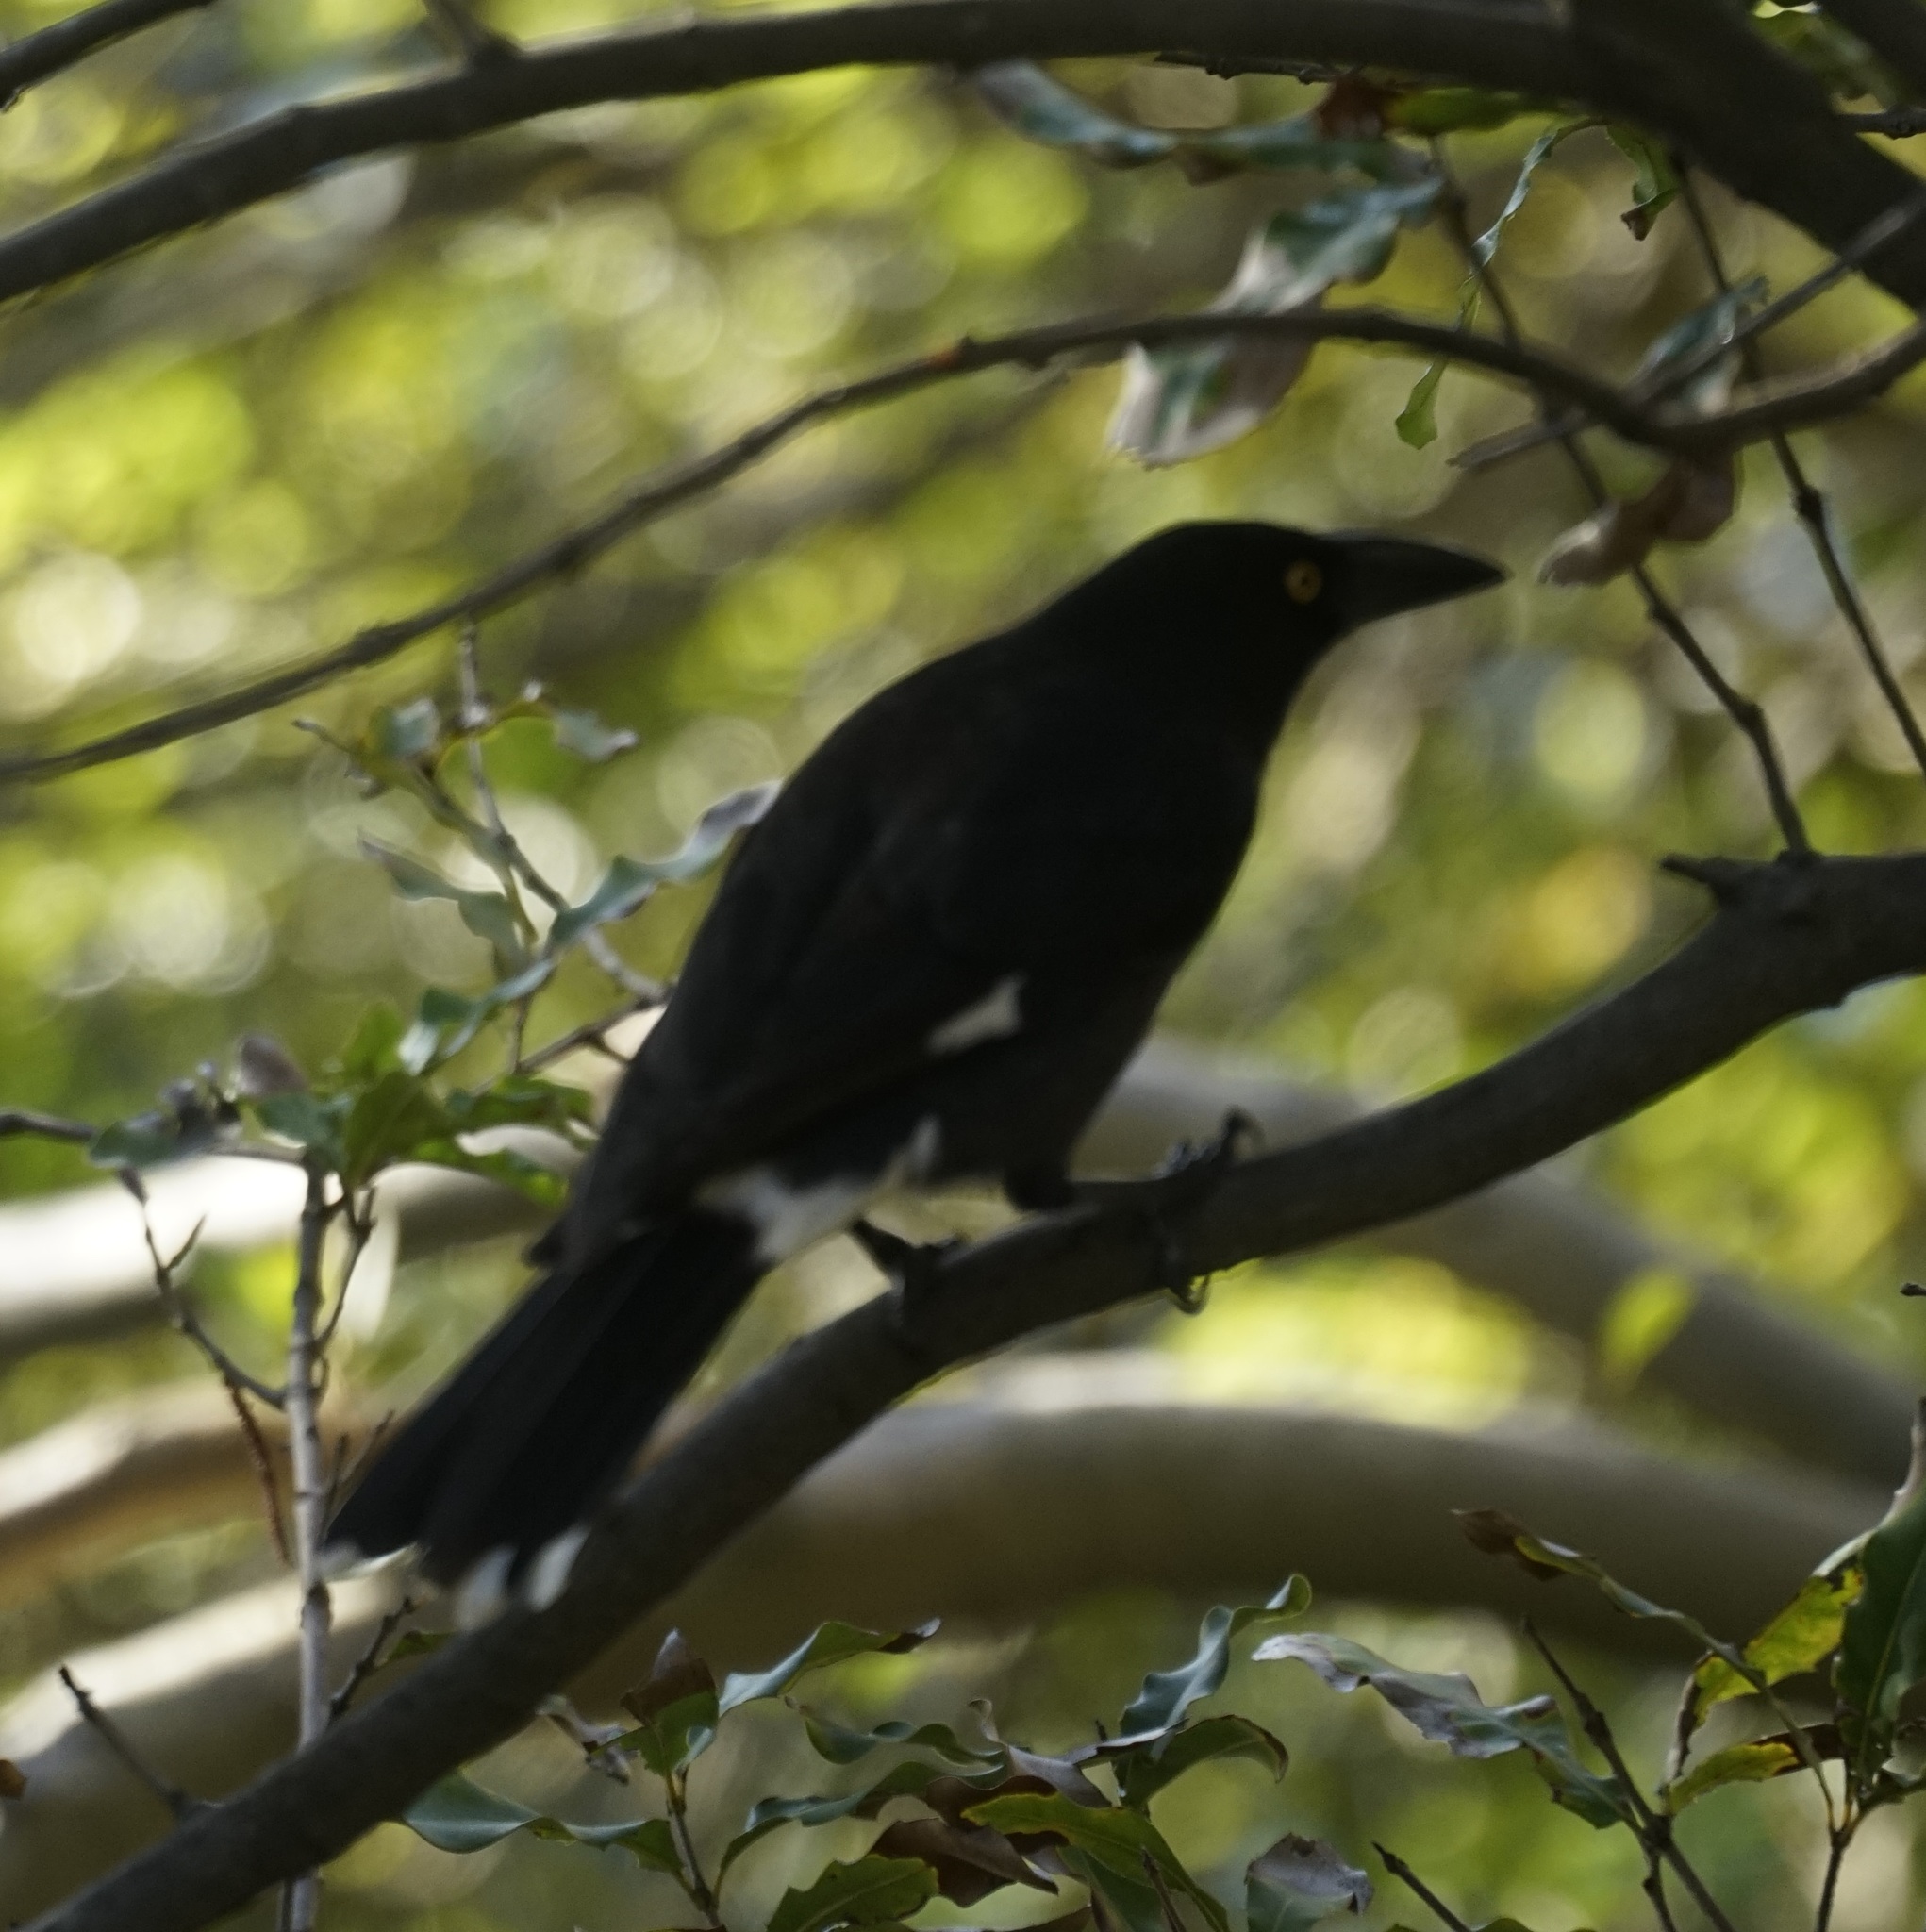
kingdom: Animalia
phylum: Chordata
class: Aves
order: Passeriformes
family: Cracticidae
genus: Strepera
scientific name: Strepera graculina
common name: Pied currawong
